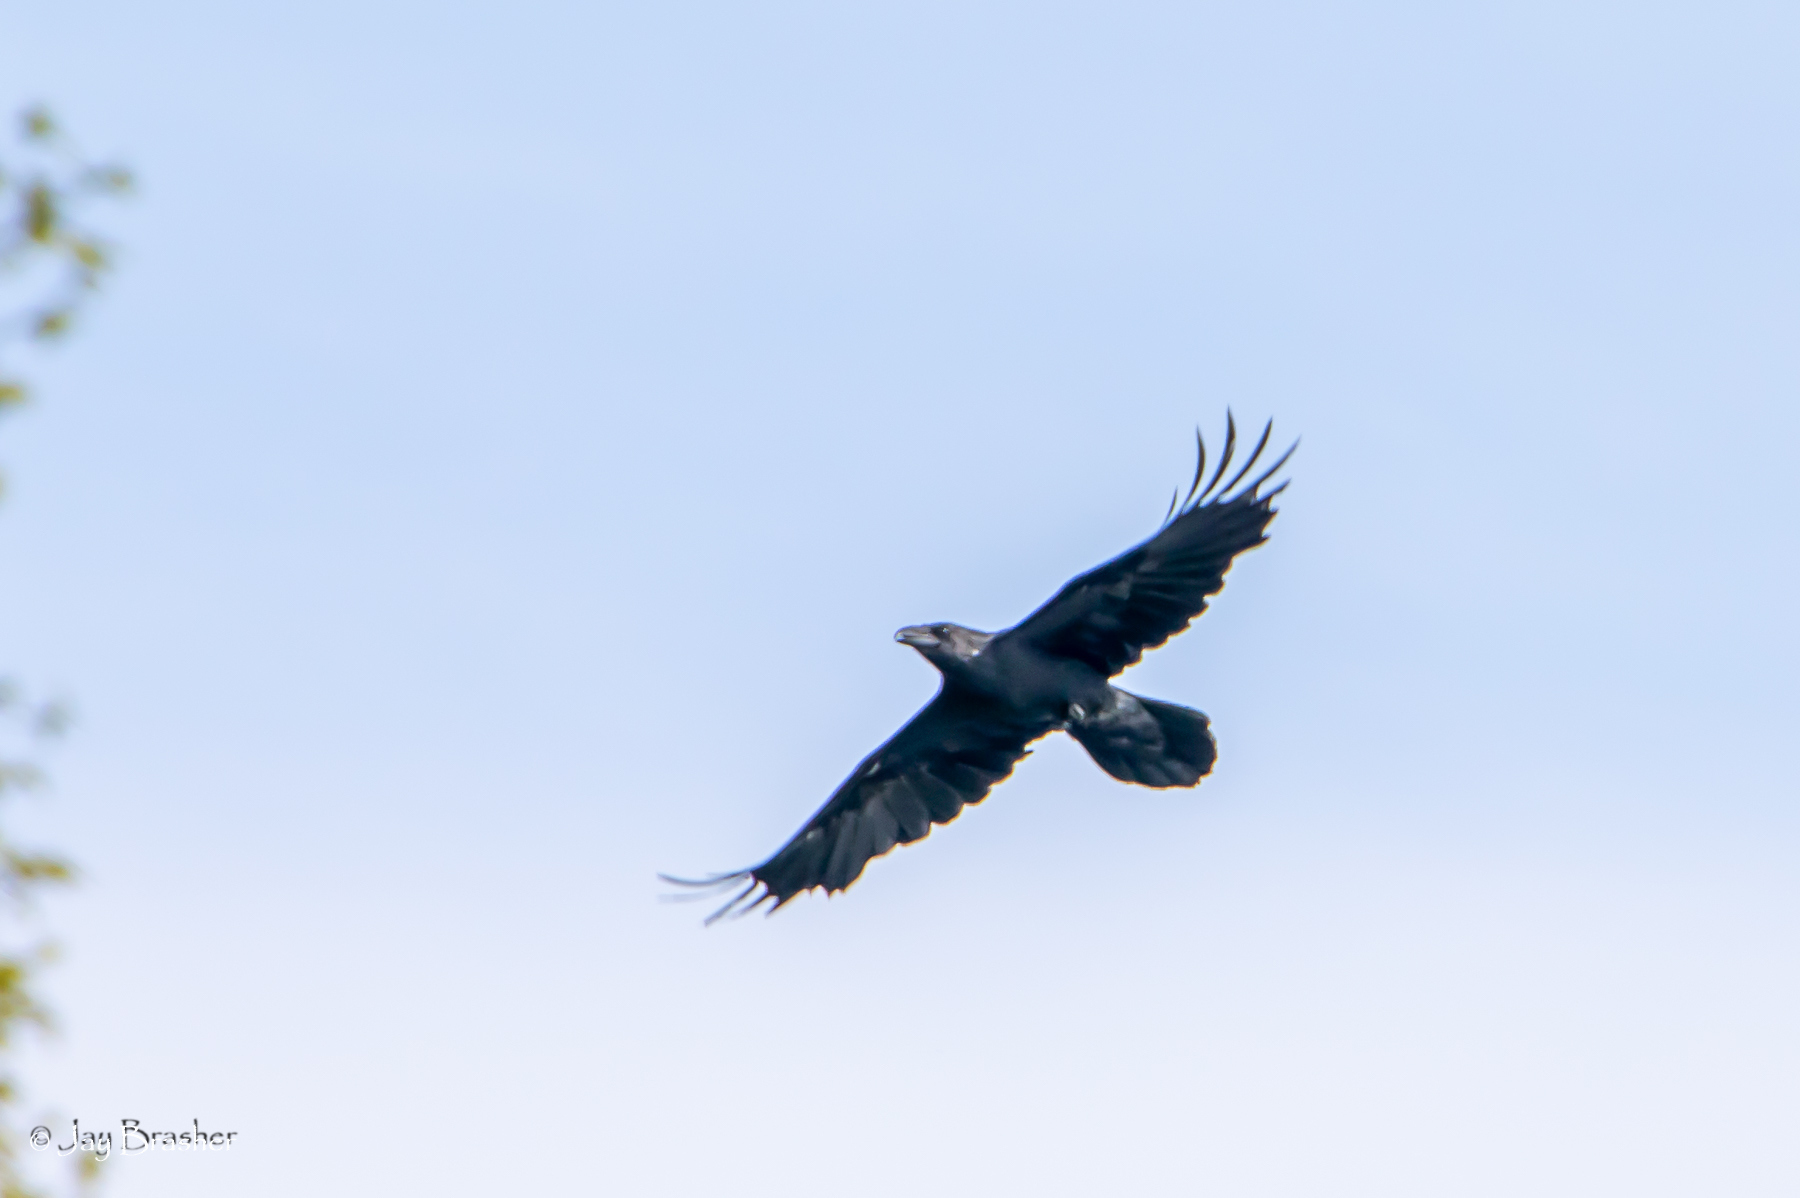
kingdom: Animalia
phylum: Chordata
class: Aves
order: Passeriformes
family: Corvidae
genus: Corvus
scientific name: Corvus corax
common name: Common raven
